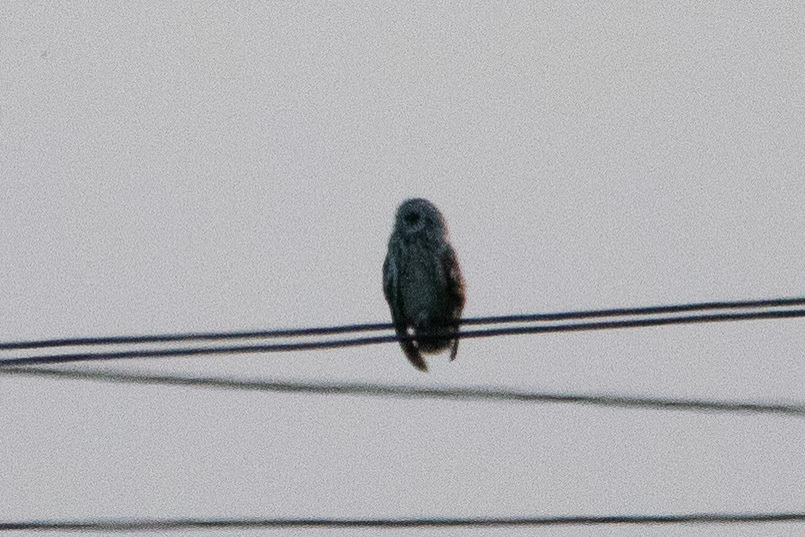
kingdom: Animalia
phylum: Chordata
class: Aves
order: Strigiformes
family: Strigidae
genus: Asio
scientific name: Asio flammeus
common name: Short-eared owl
